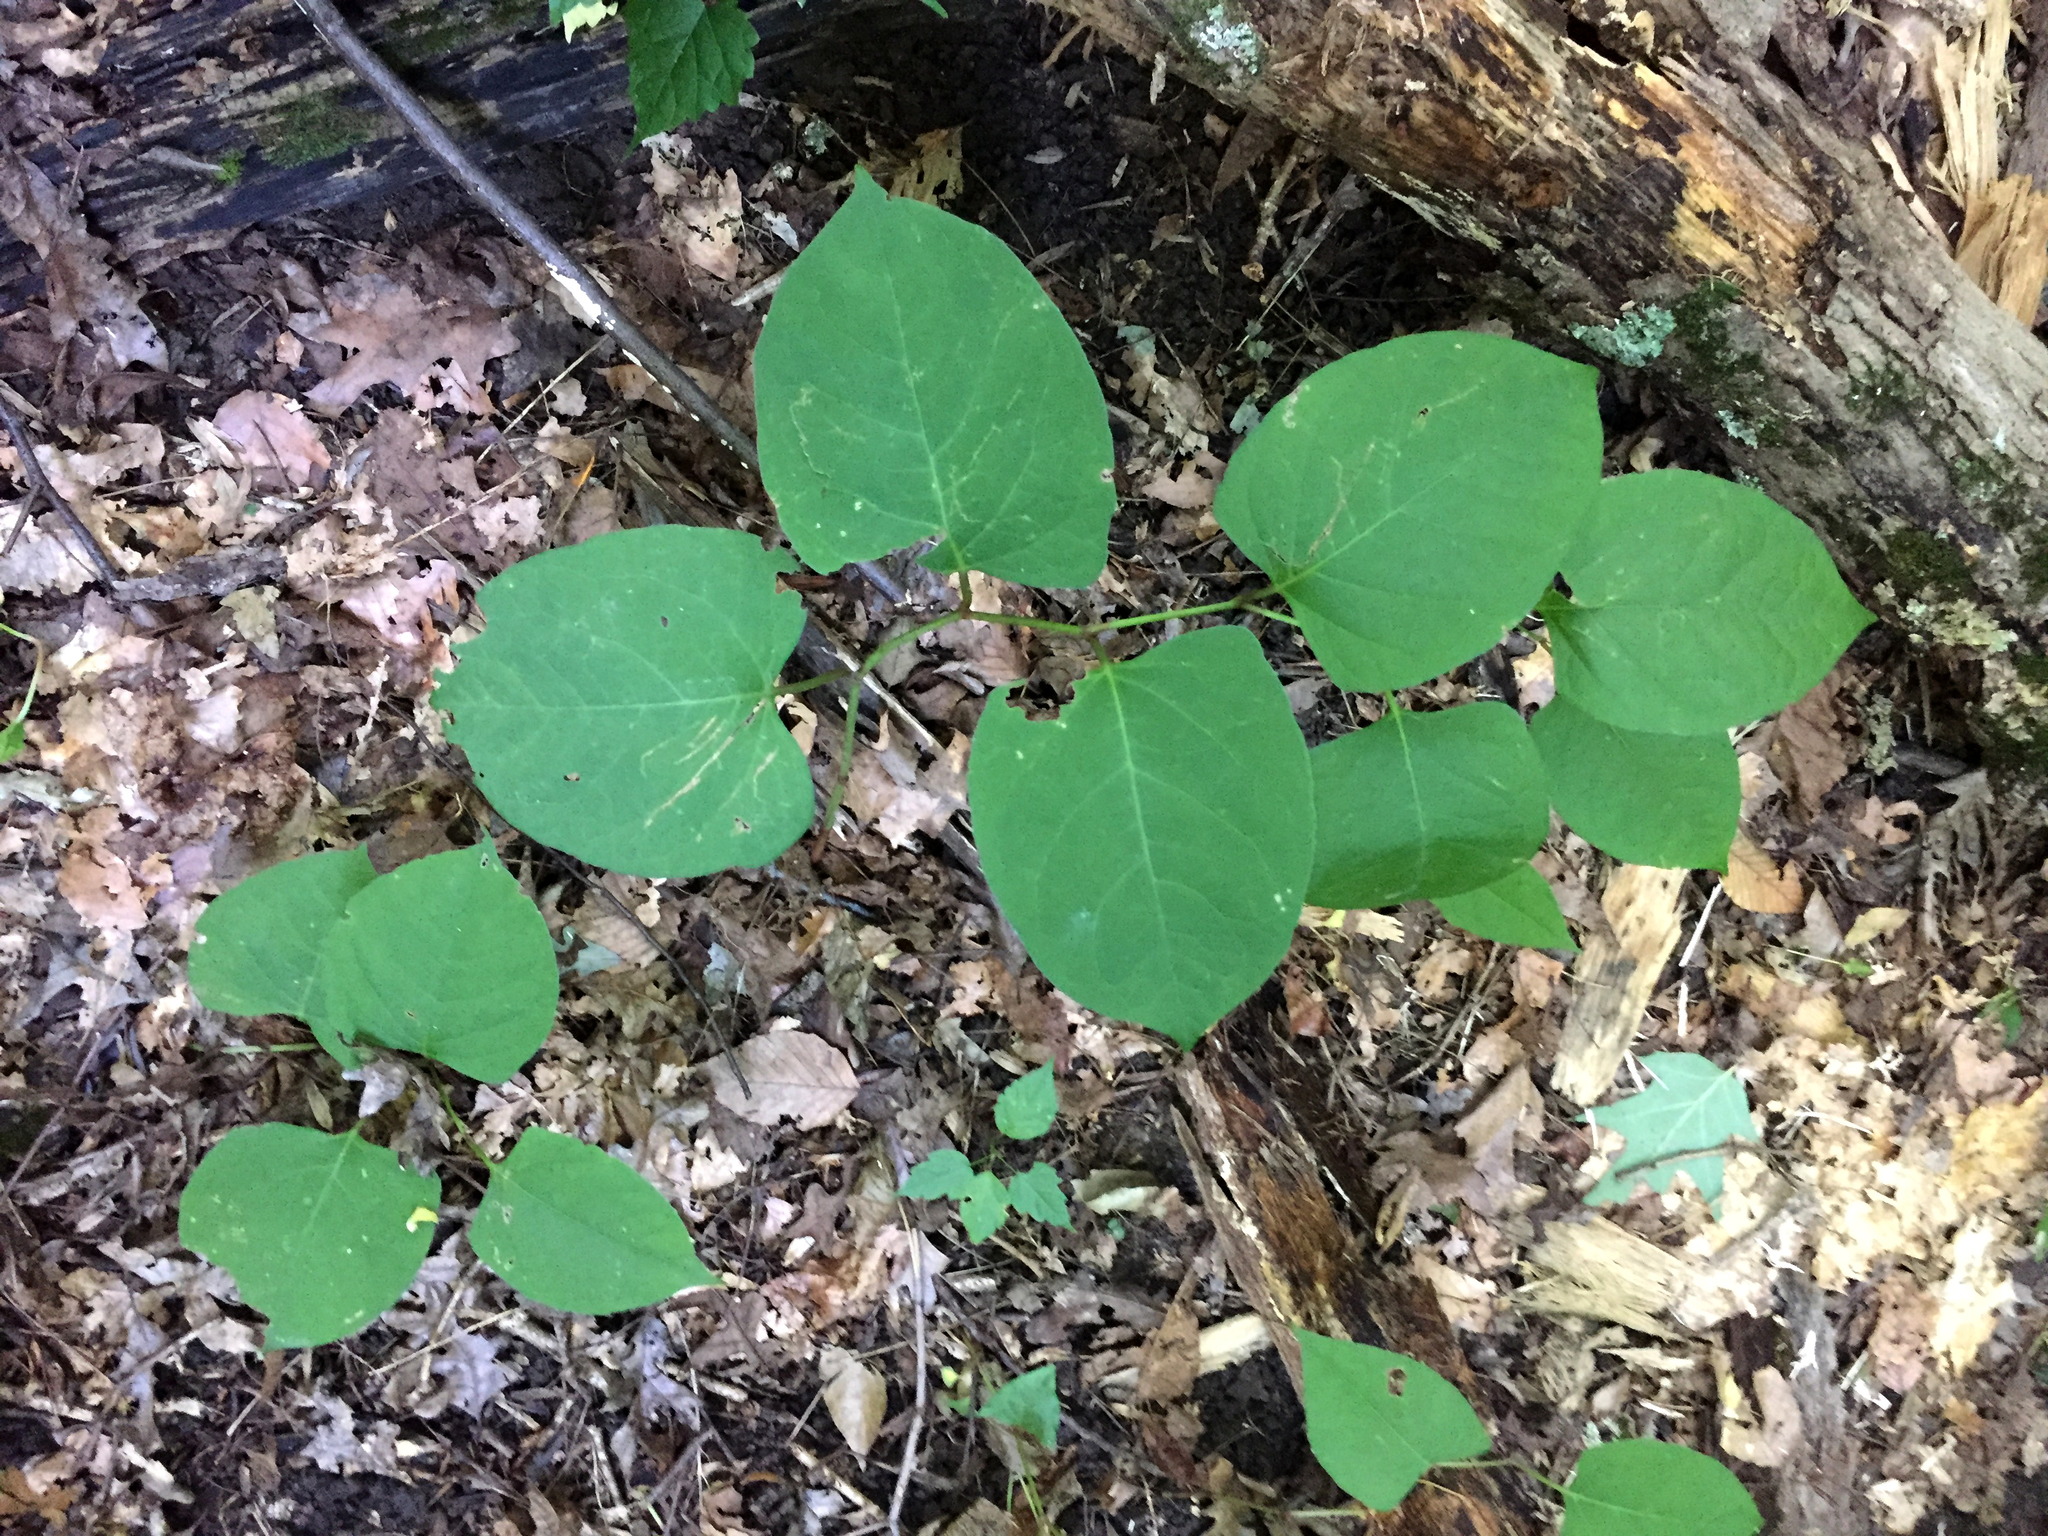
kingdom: Plantae
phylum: Tracheophyta
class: Magnoliopsida
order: Caryophyllales
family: Polygonaceae
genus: Reynoutria
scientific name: Reynoutria japonica
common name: Japanese knotweed
